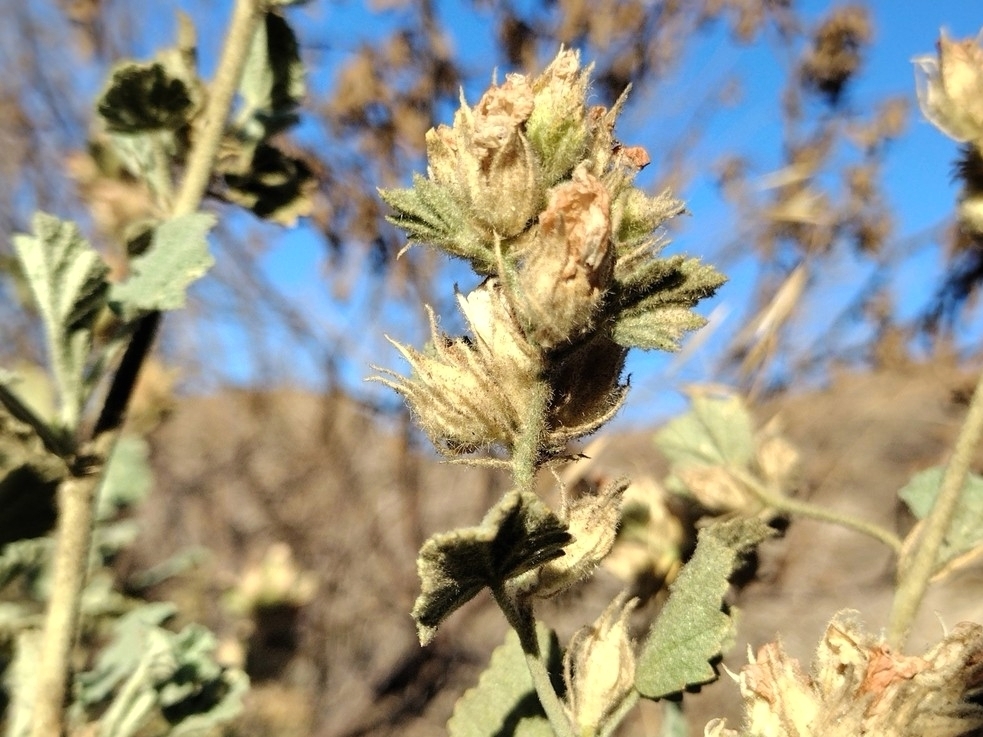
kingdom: Plantae
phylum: Tracheophyta
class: Magnoliopsida
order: Malvales
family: Malvaceae
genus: Malacothamnus
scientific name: Malacothamnus marrubioides
